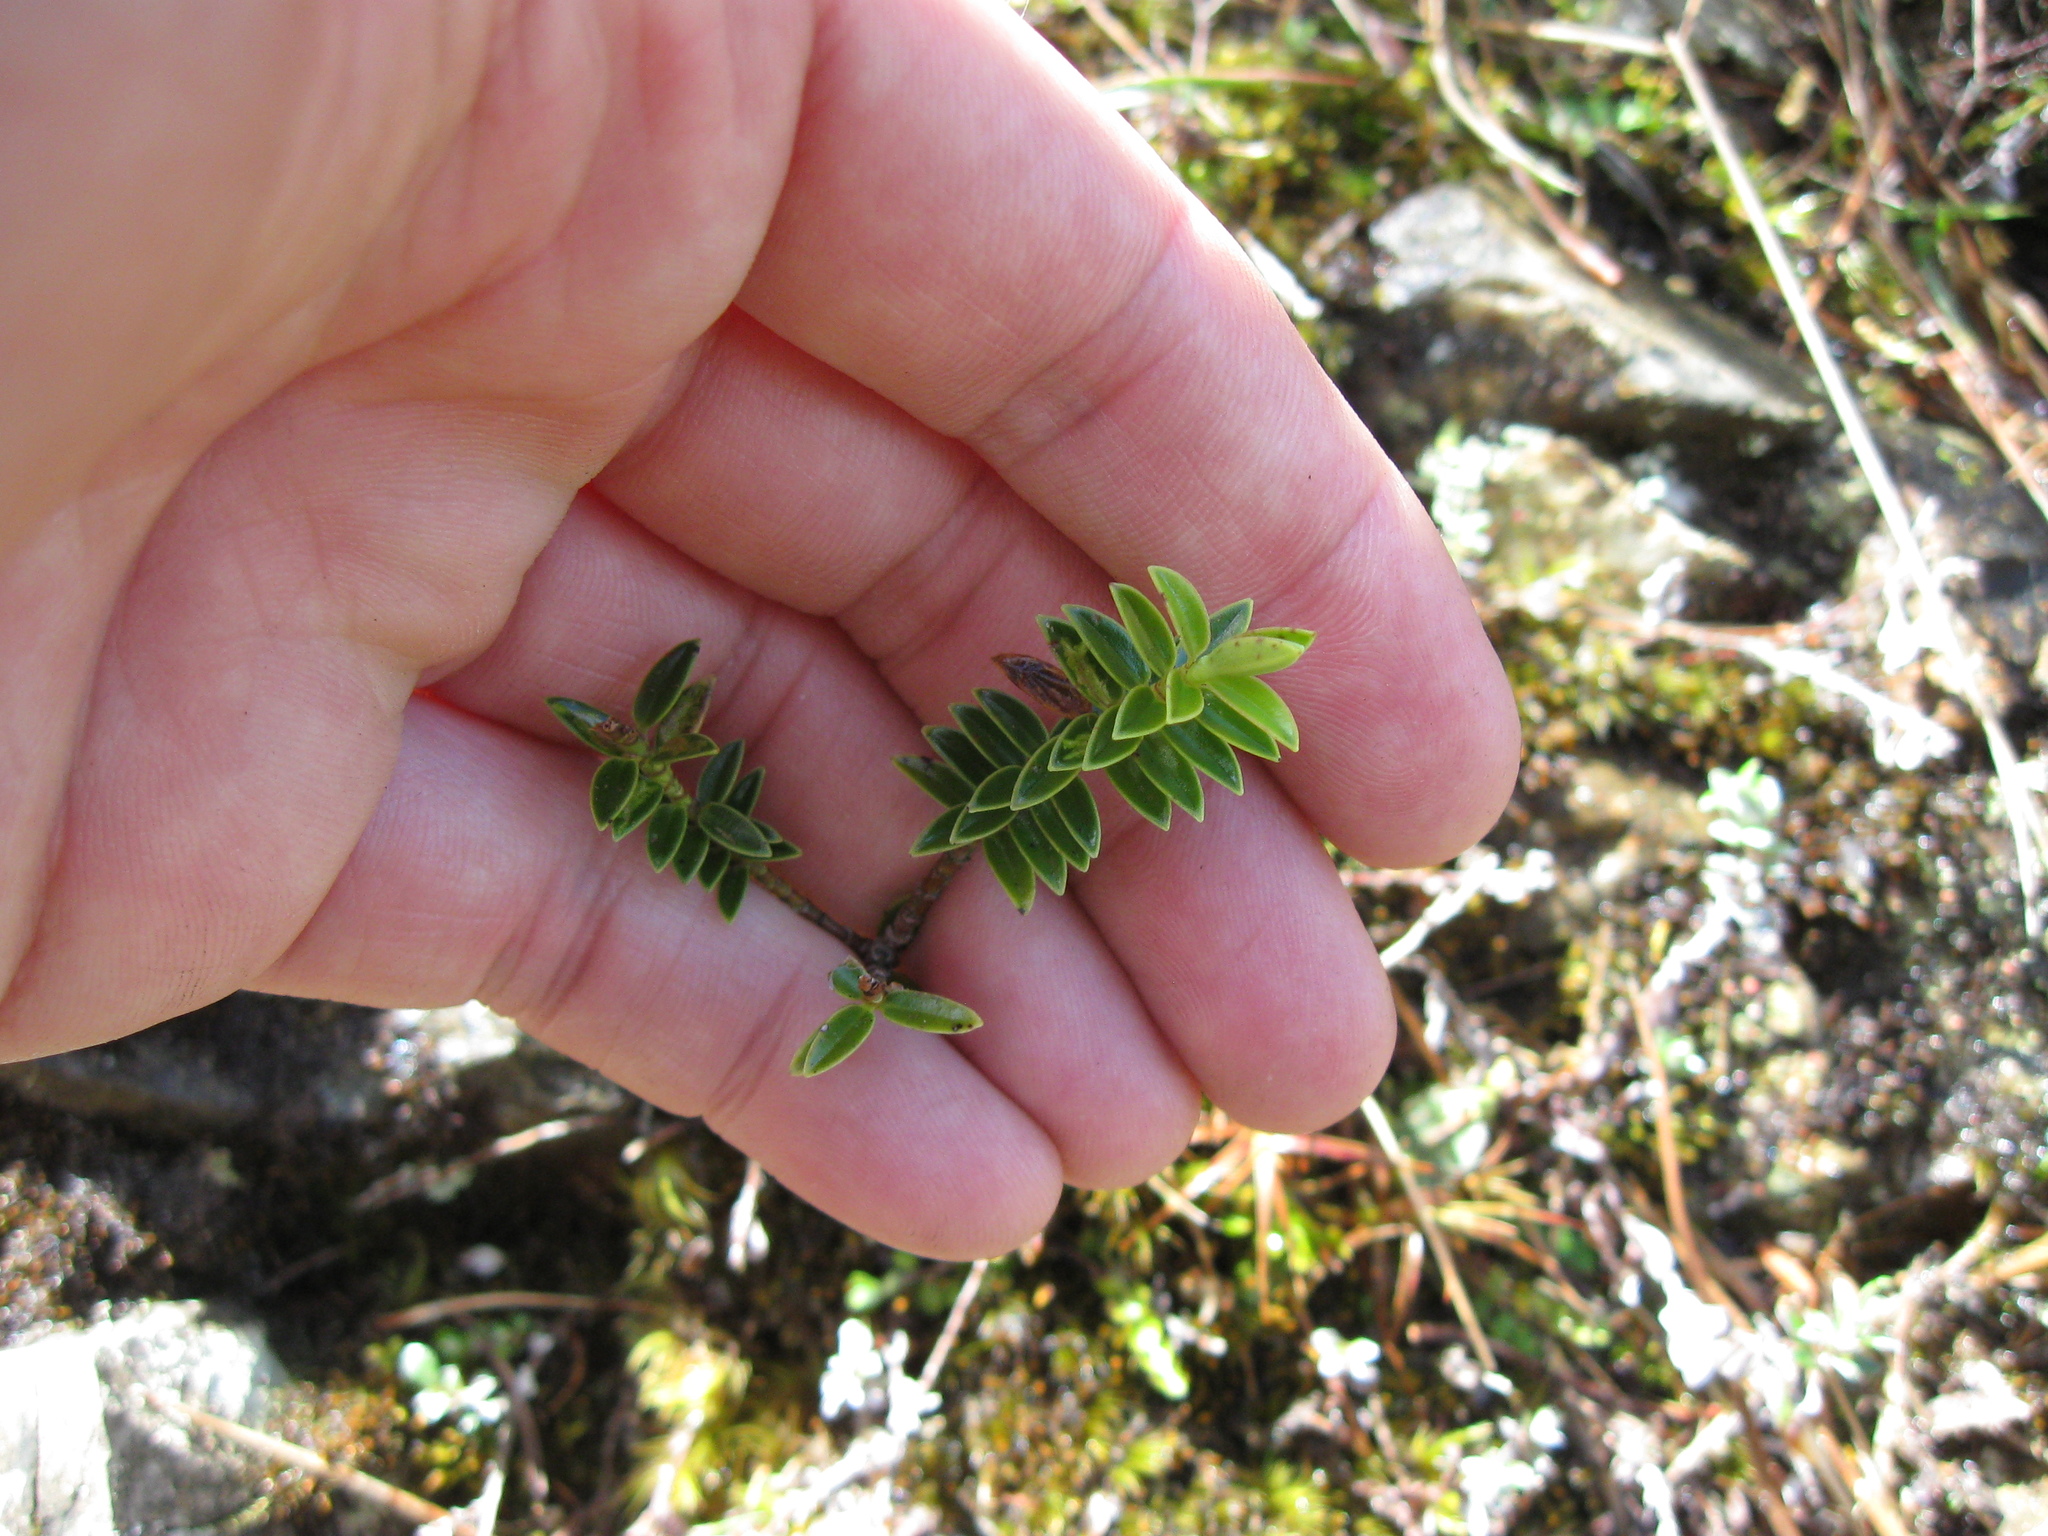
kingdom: Plantae
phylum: Tracheophyta
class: Magnoliopsida
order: Lamiales
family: Plantaginaceae
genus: Veronica
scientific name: Veronica odora
